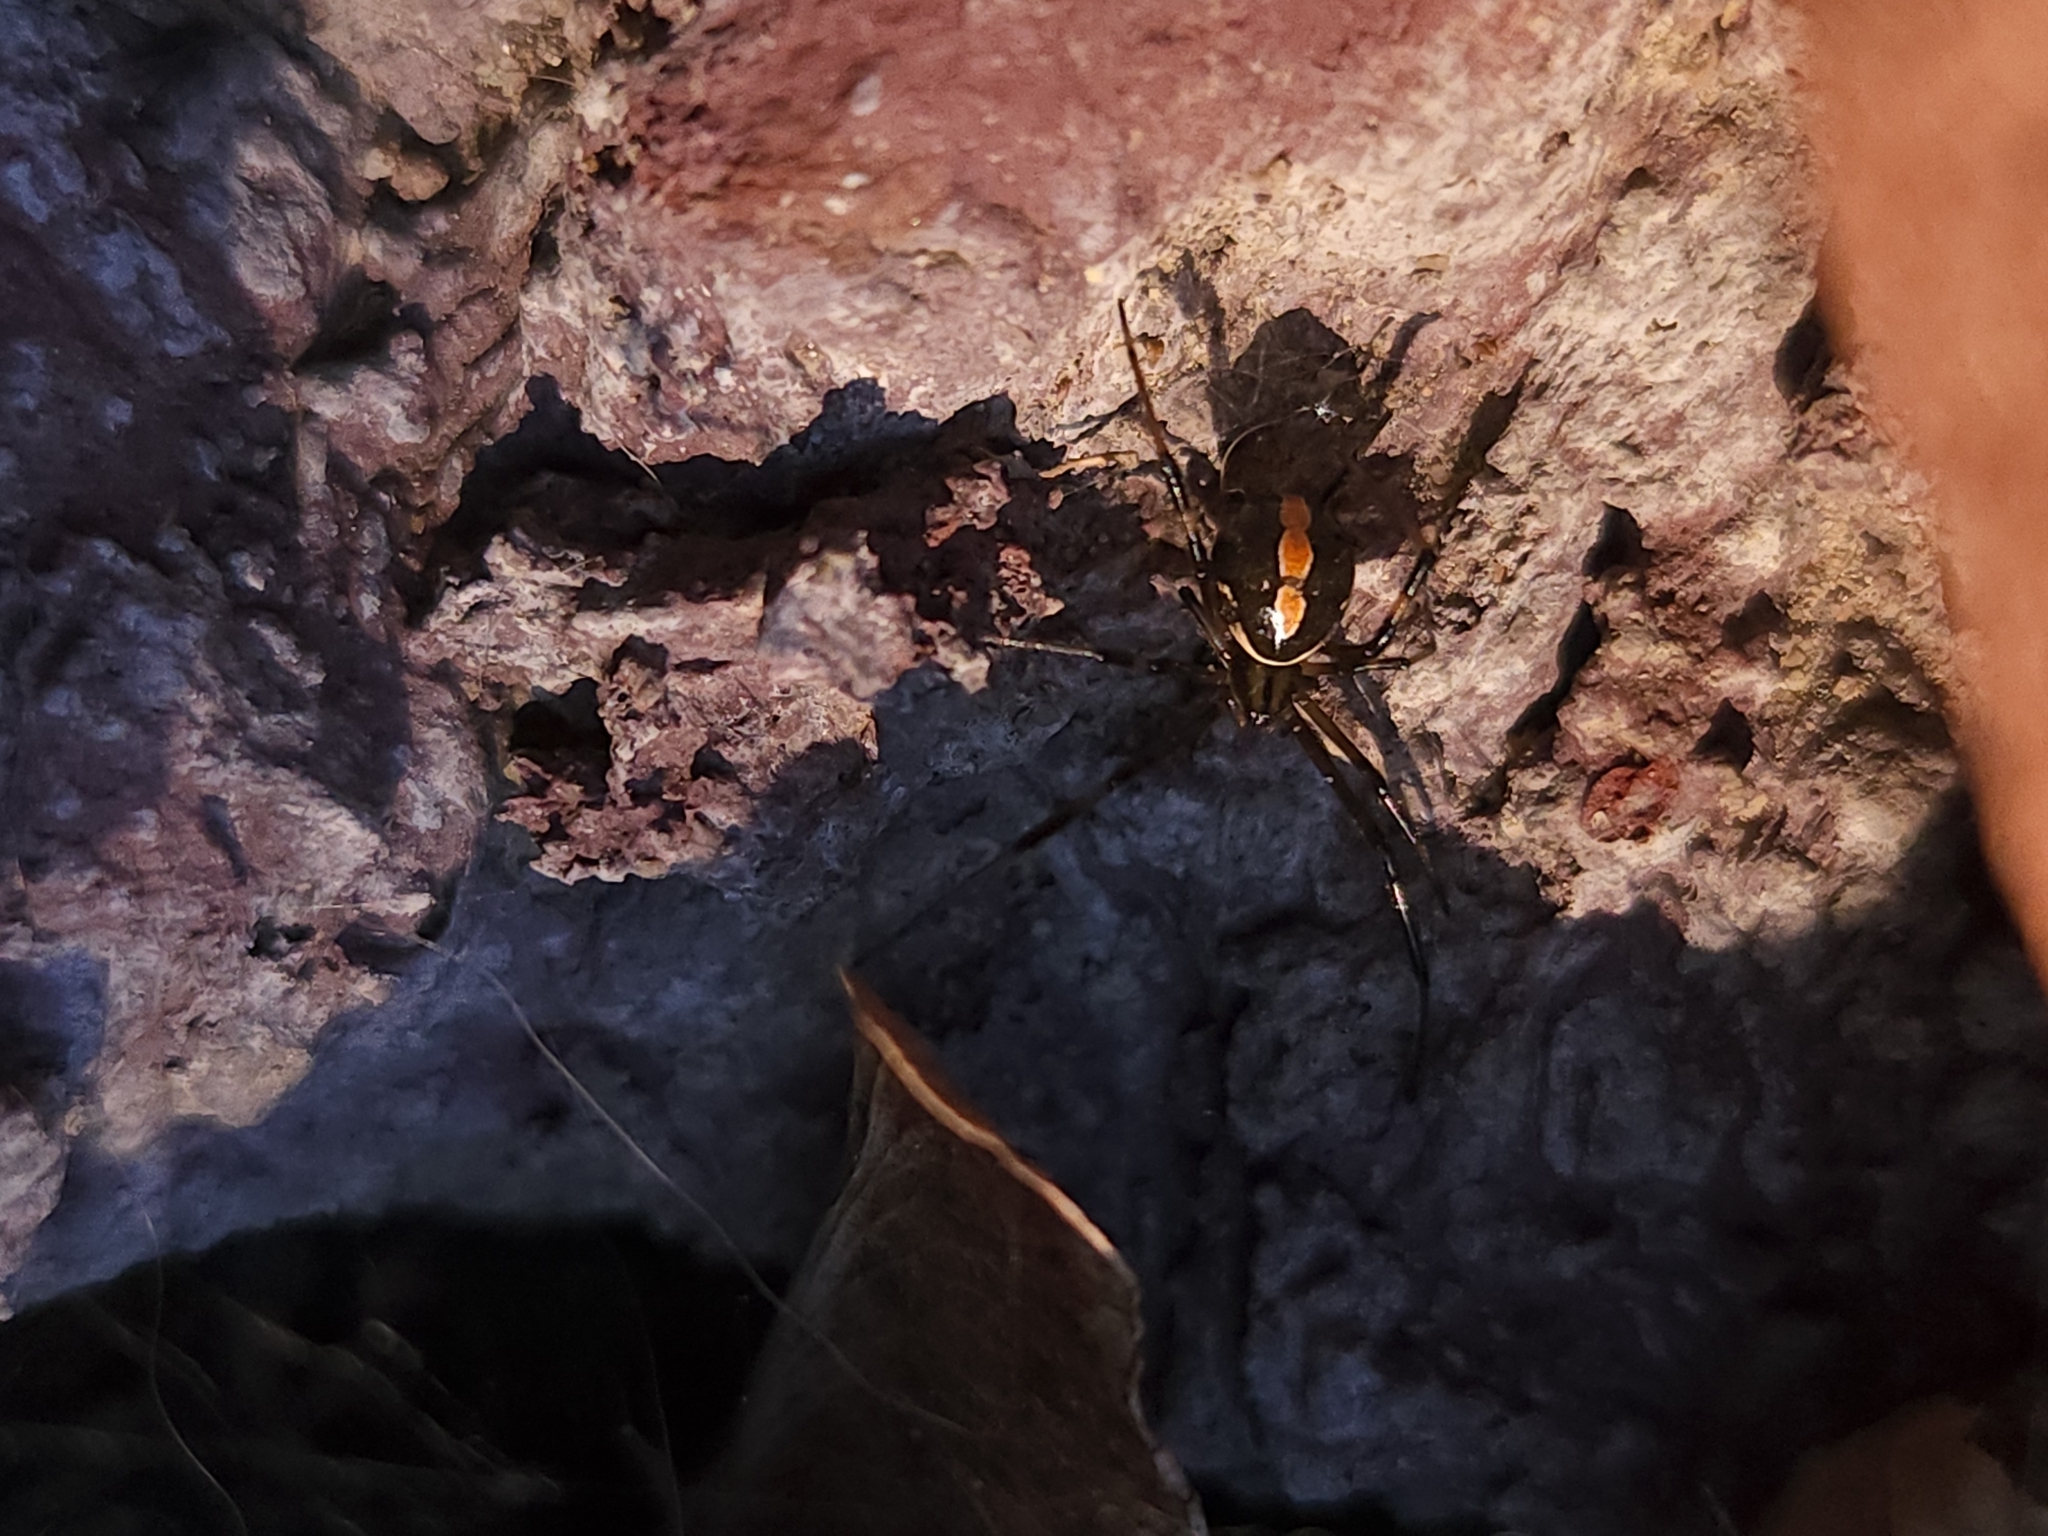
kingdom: Animalia
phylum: Arthropoda
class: Arachnida
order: Araneae
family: Theridiidae
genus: Latrodectus
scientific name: Latrodectus hesperus
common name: Western black widow
